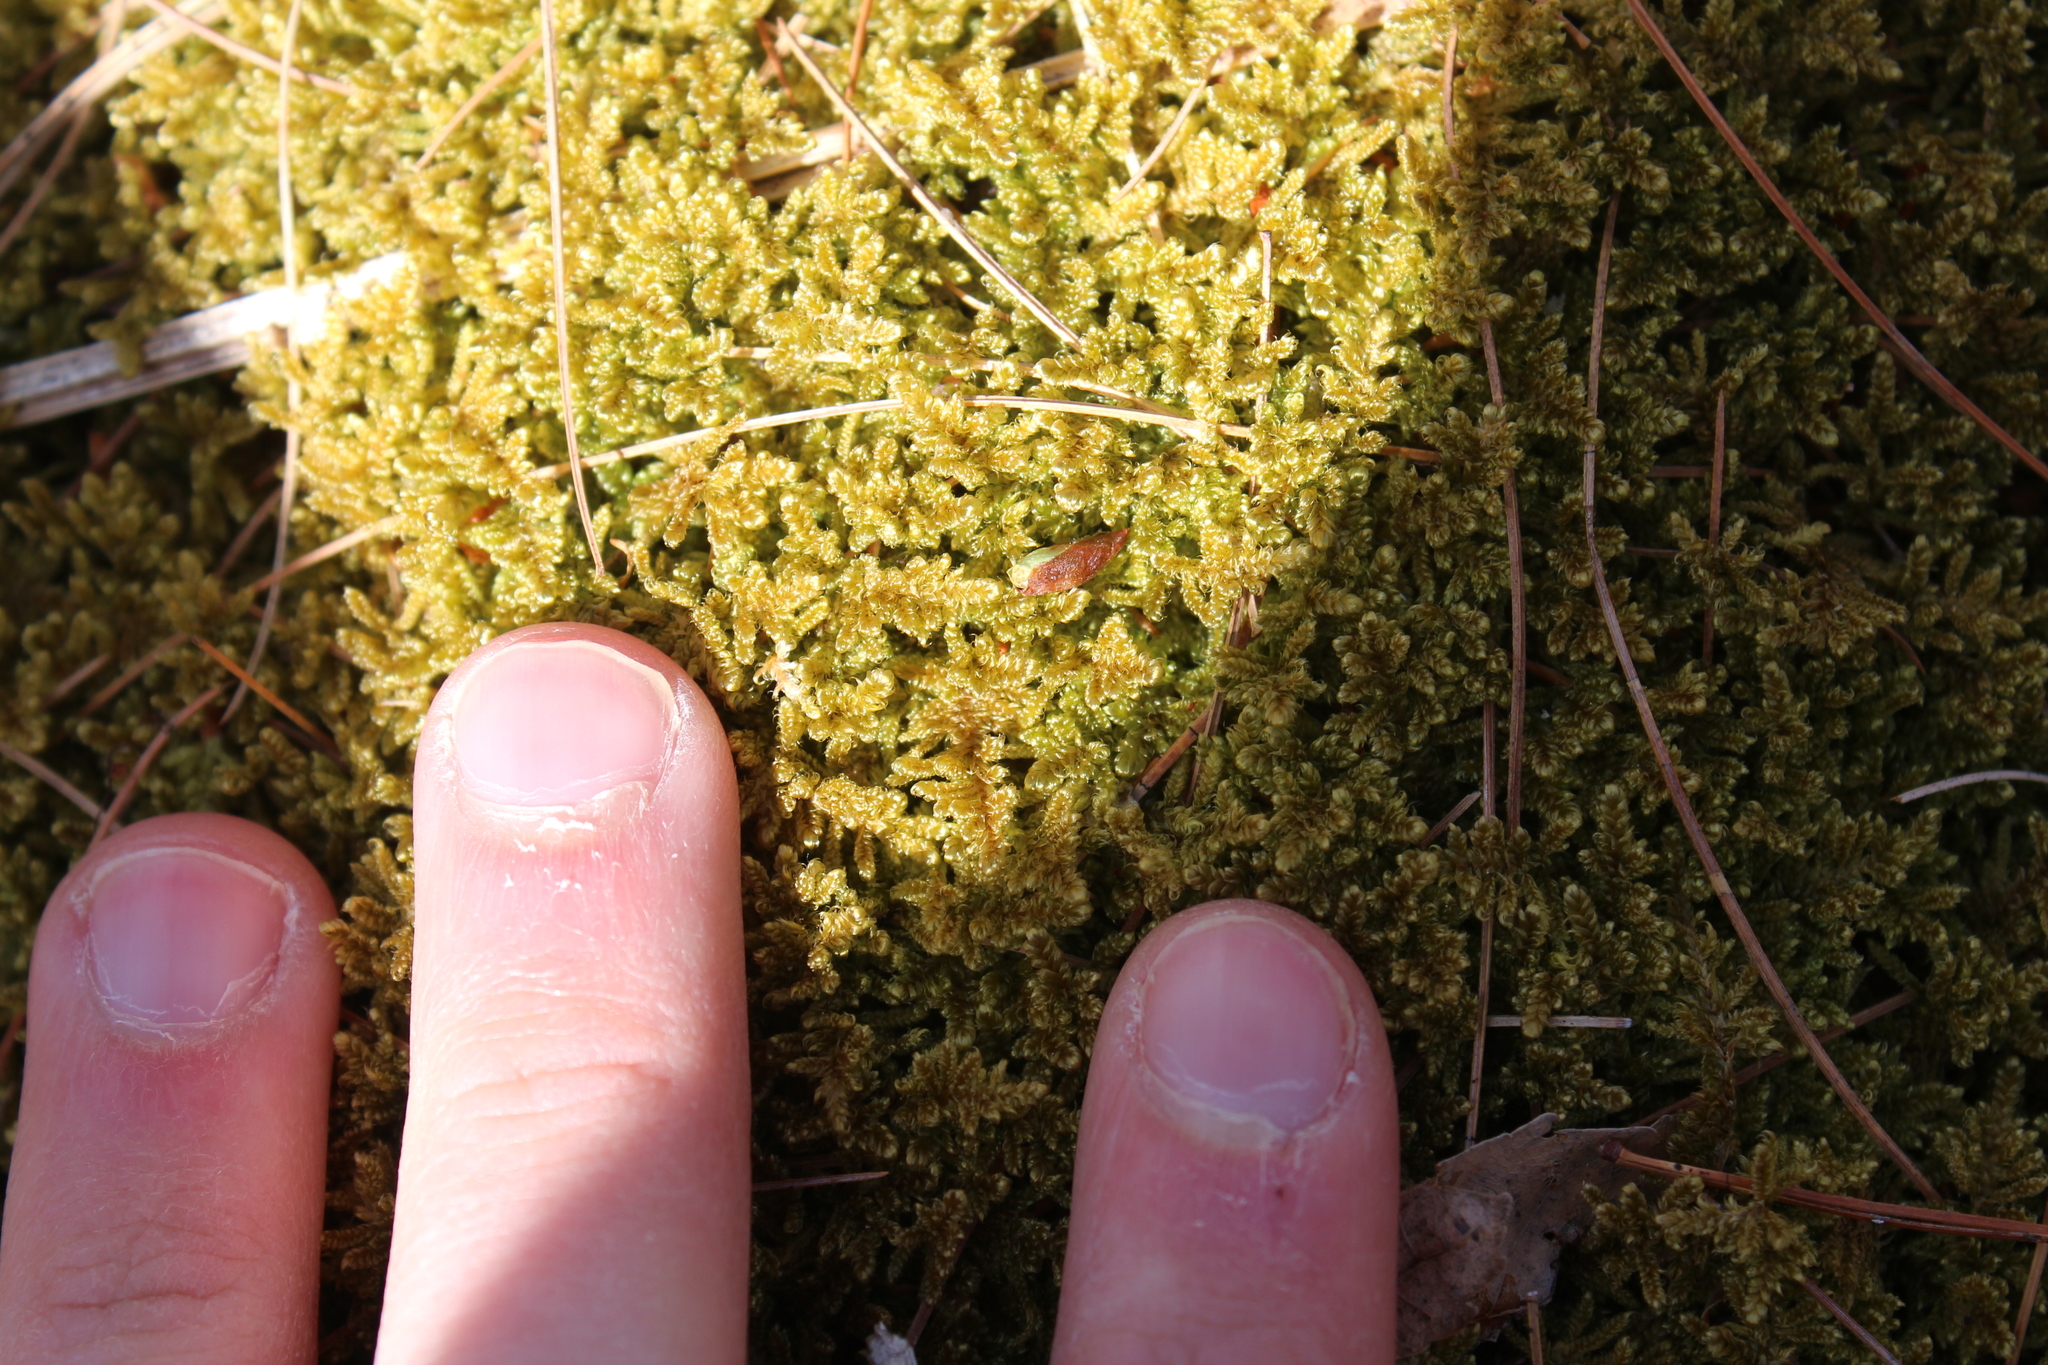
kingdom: Plantae
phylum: Bryophyta
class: Bryopsida
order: Hypnales
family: Callicladiaceae
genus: Callicladium
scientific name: Callicladium imponens
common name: Brocade moss
